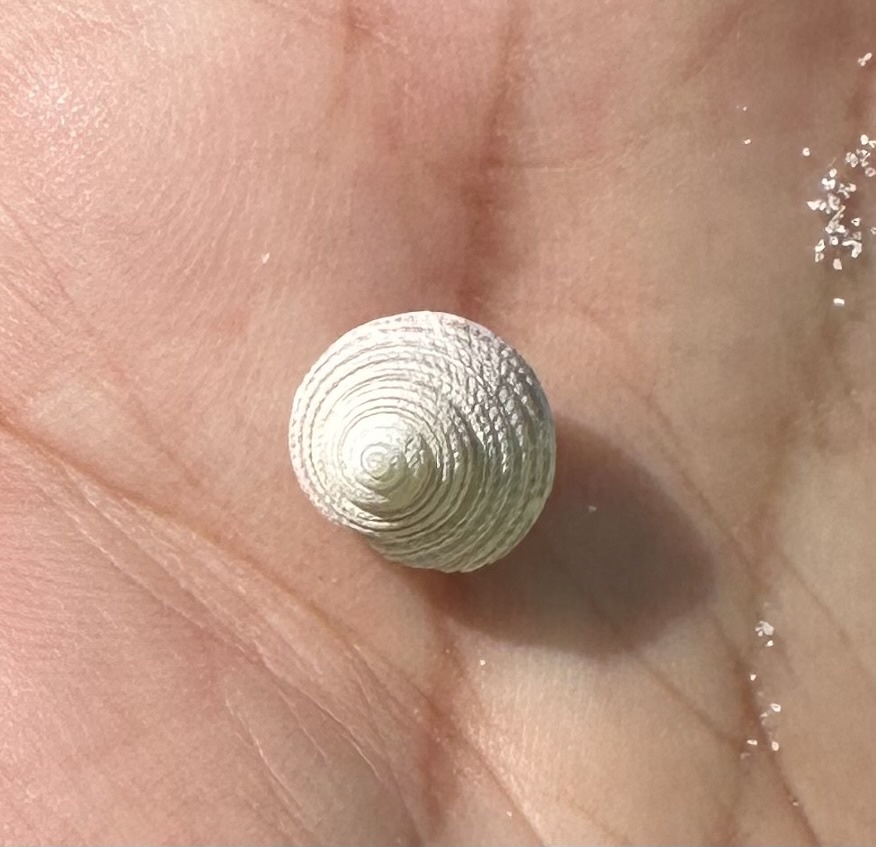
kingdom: Animalia
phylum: Mollusca
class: Gastropoda
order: Trochida
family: Trochidae
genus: Monilea
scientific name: Monilea callifera
